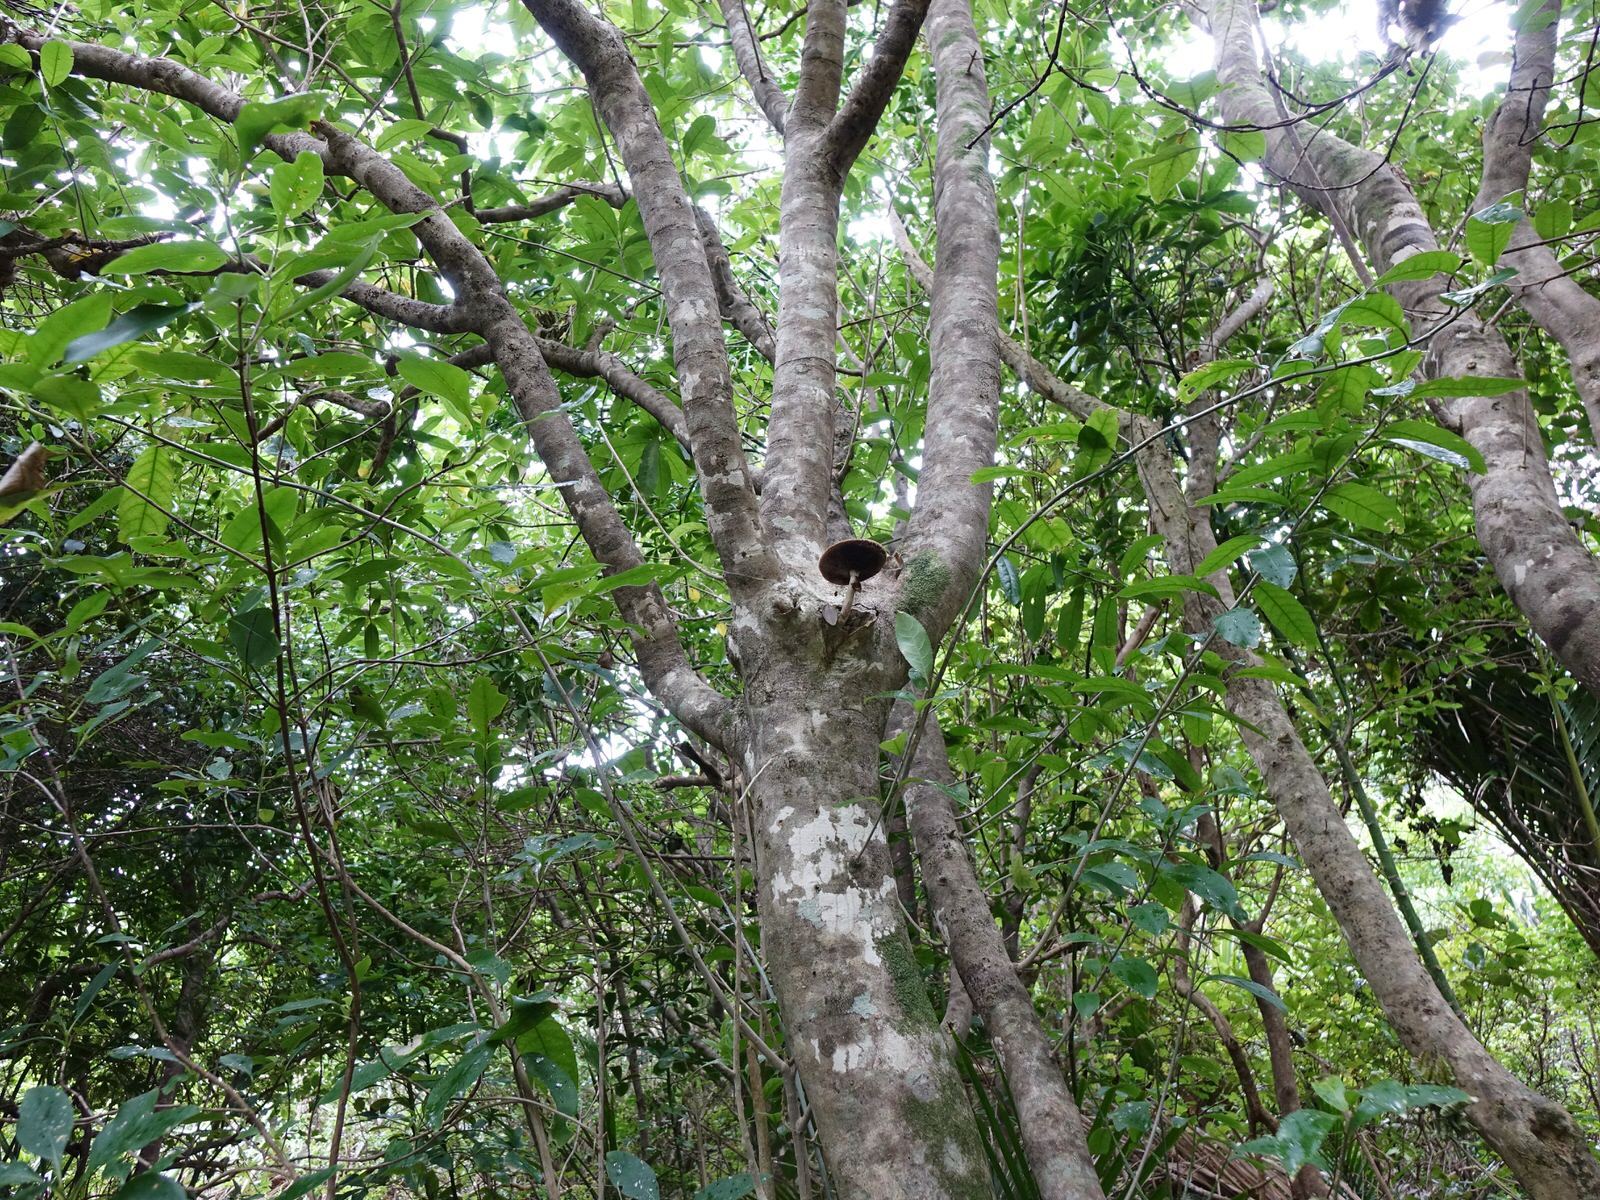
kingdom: Fungi
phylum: Basidiomycota
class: Agaricomycetes
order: Agaricales
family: Tubariaceae
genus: Cyclocybe
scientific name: Cyclocybe parasitica
